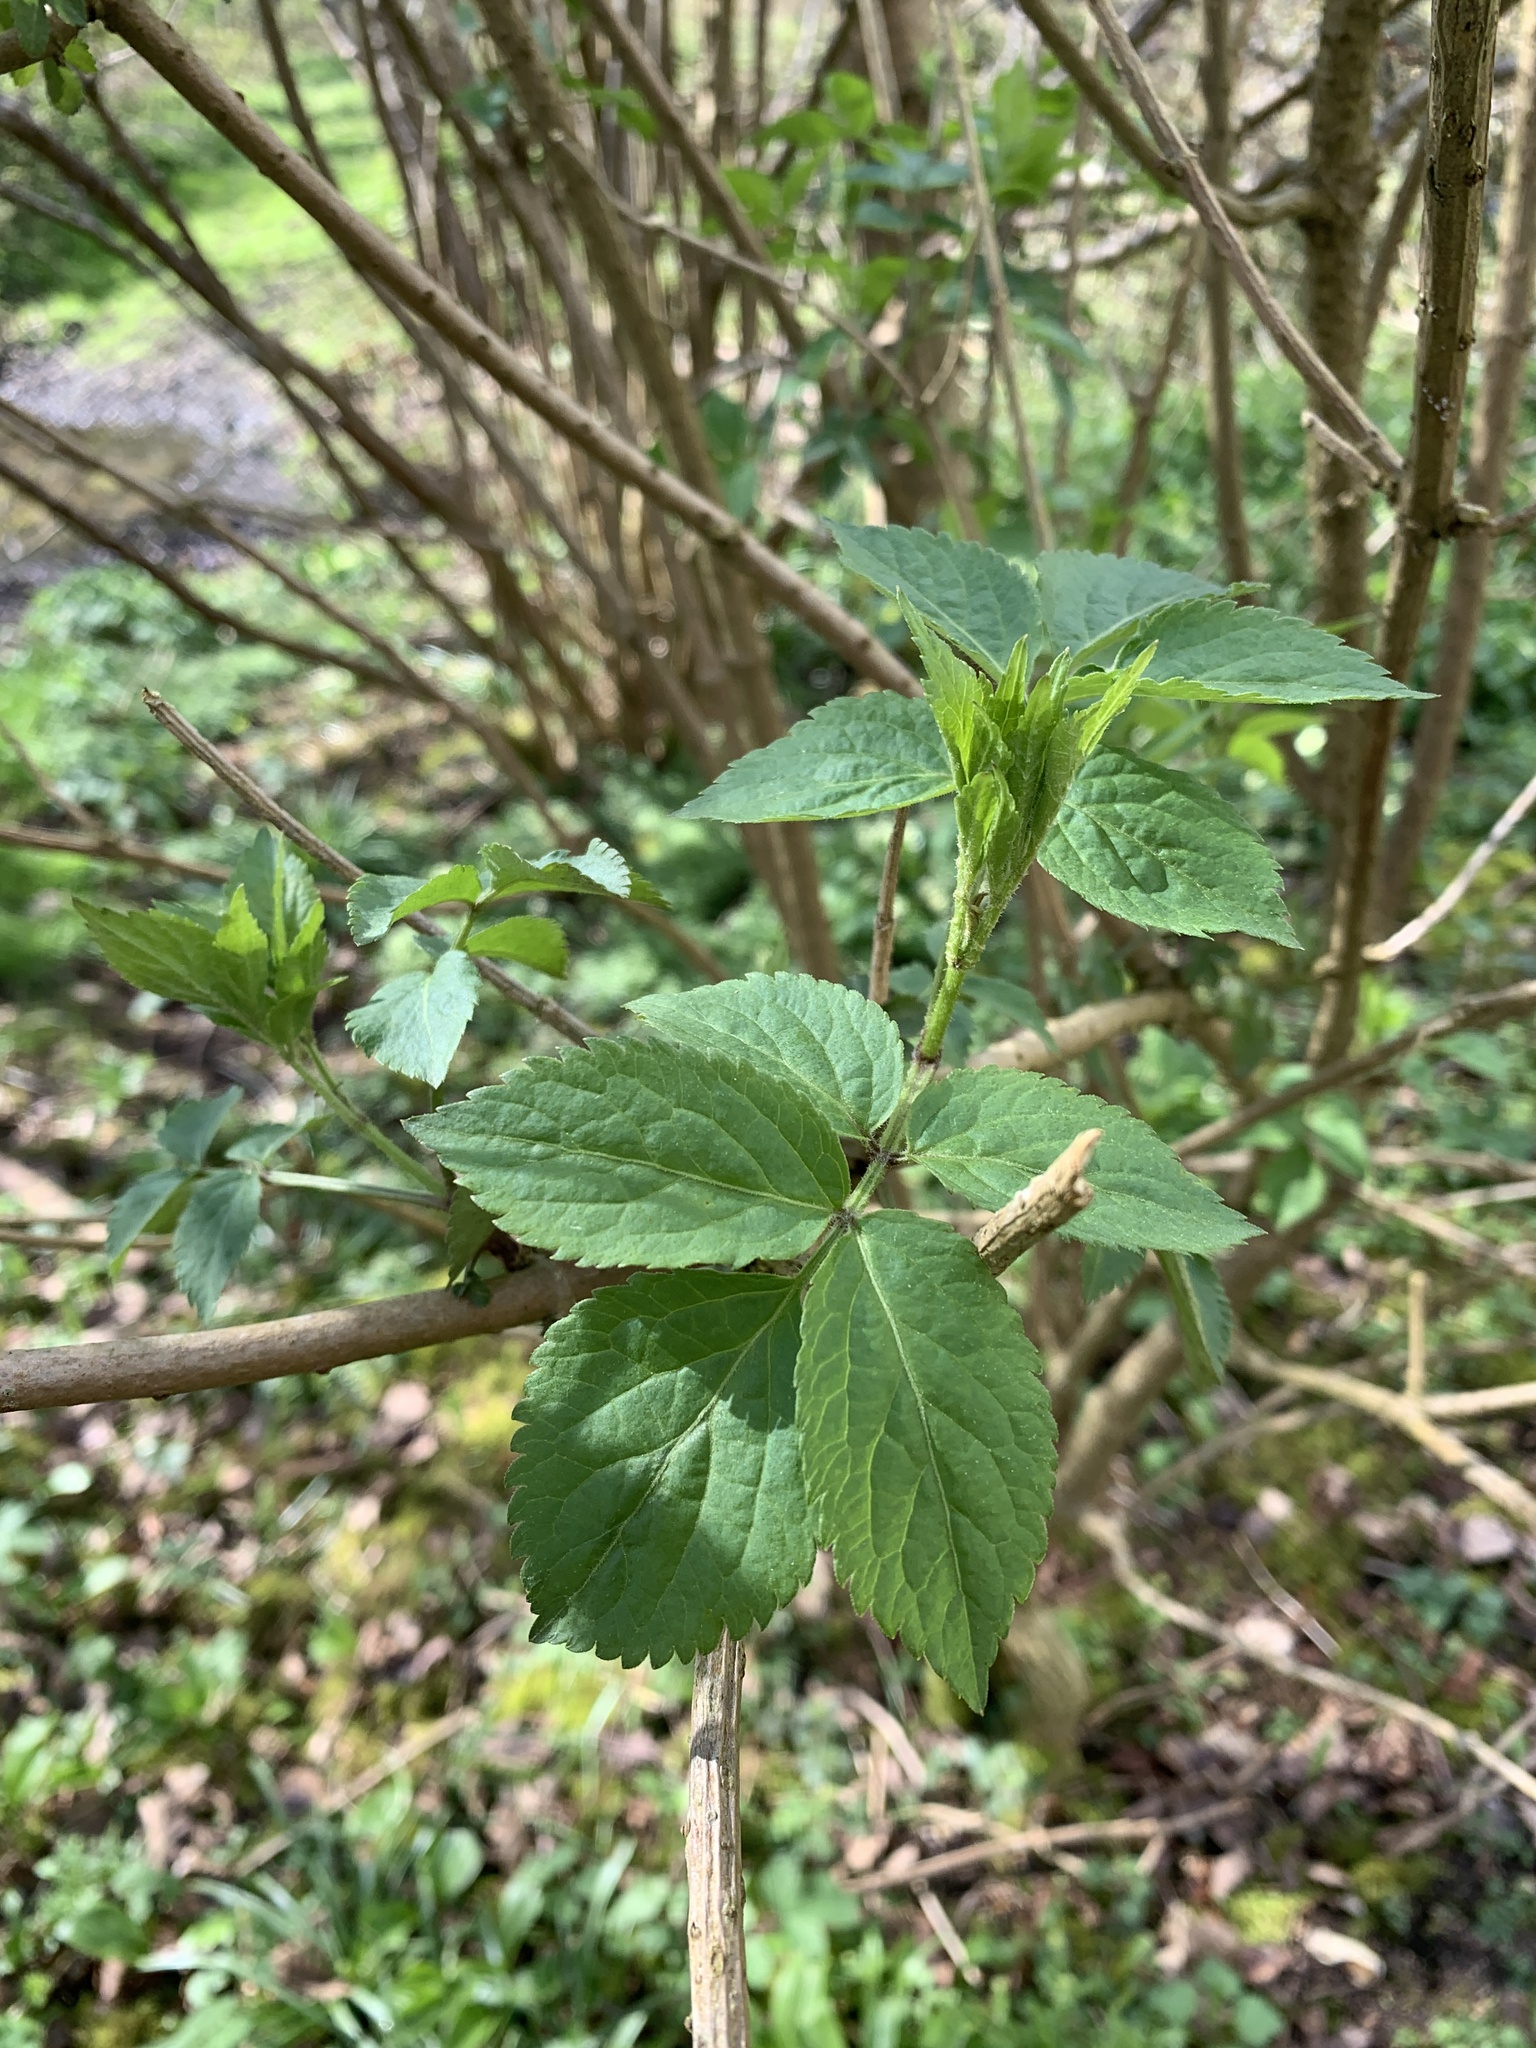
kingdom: Plantae
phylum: Tracheophyta
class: Magnoliopsida
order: Dipsacales
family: Viburnaceae
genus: Sambucus
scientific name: Sambucus nigra
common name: Elder
